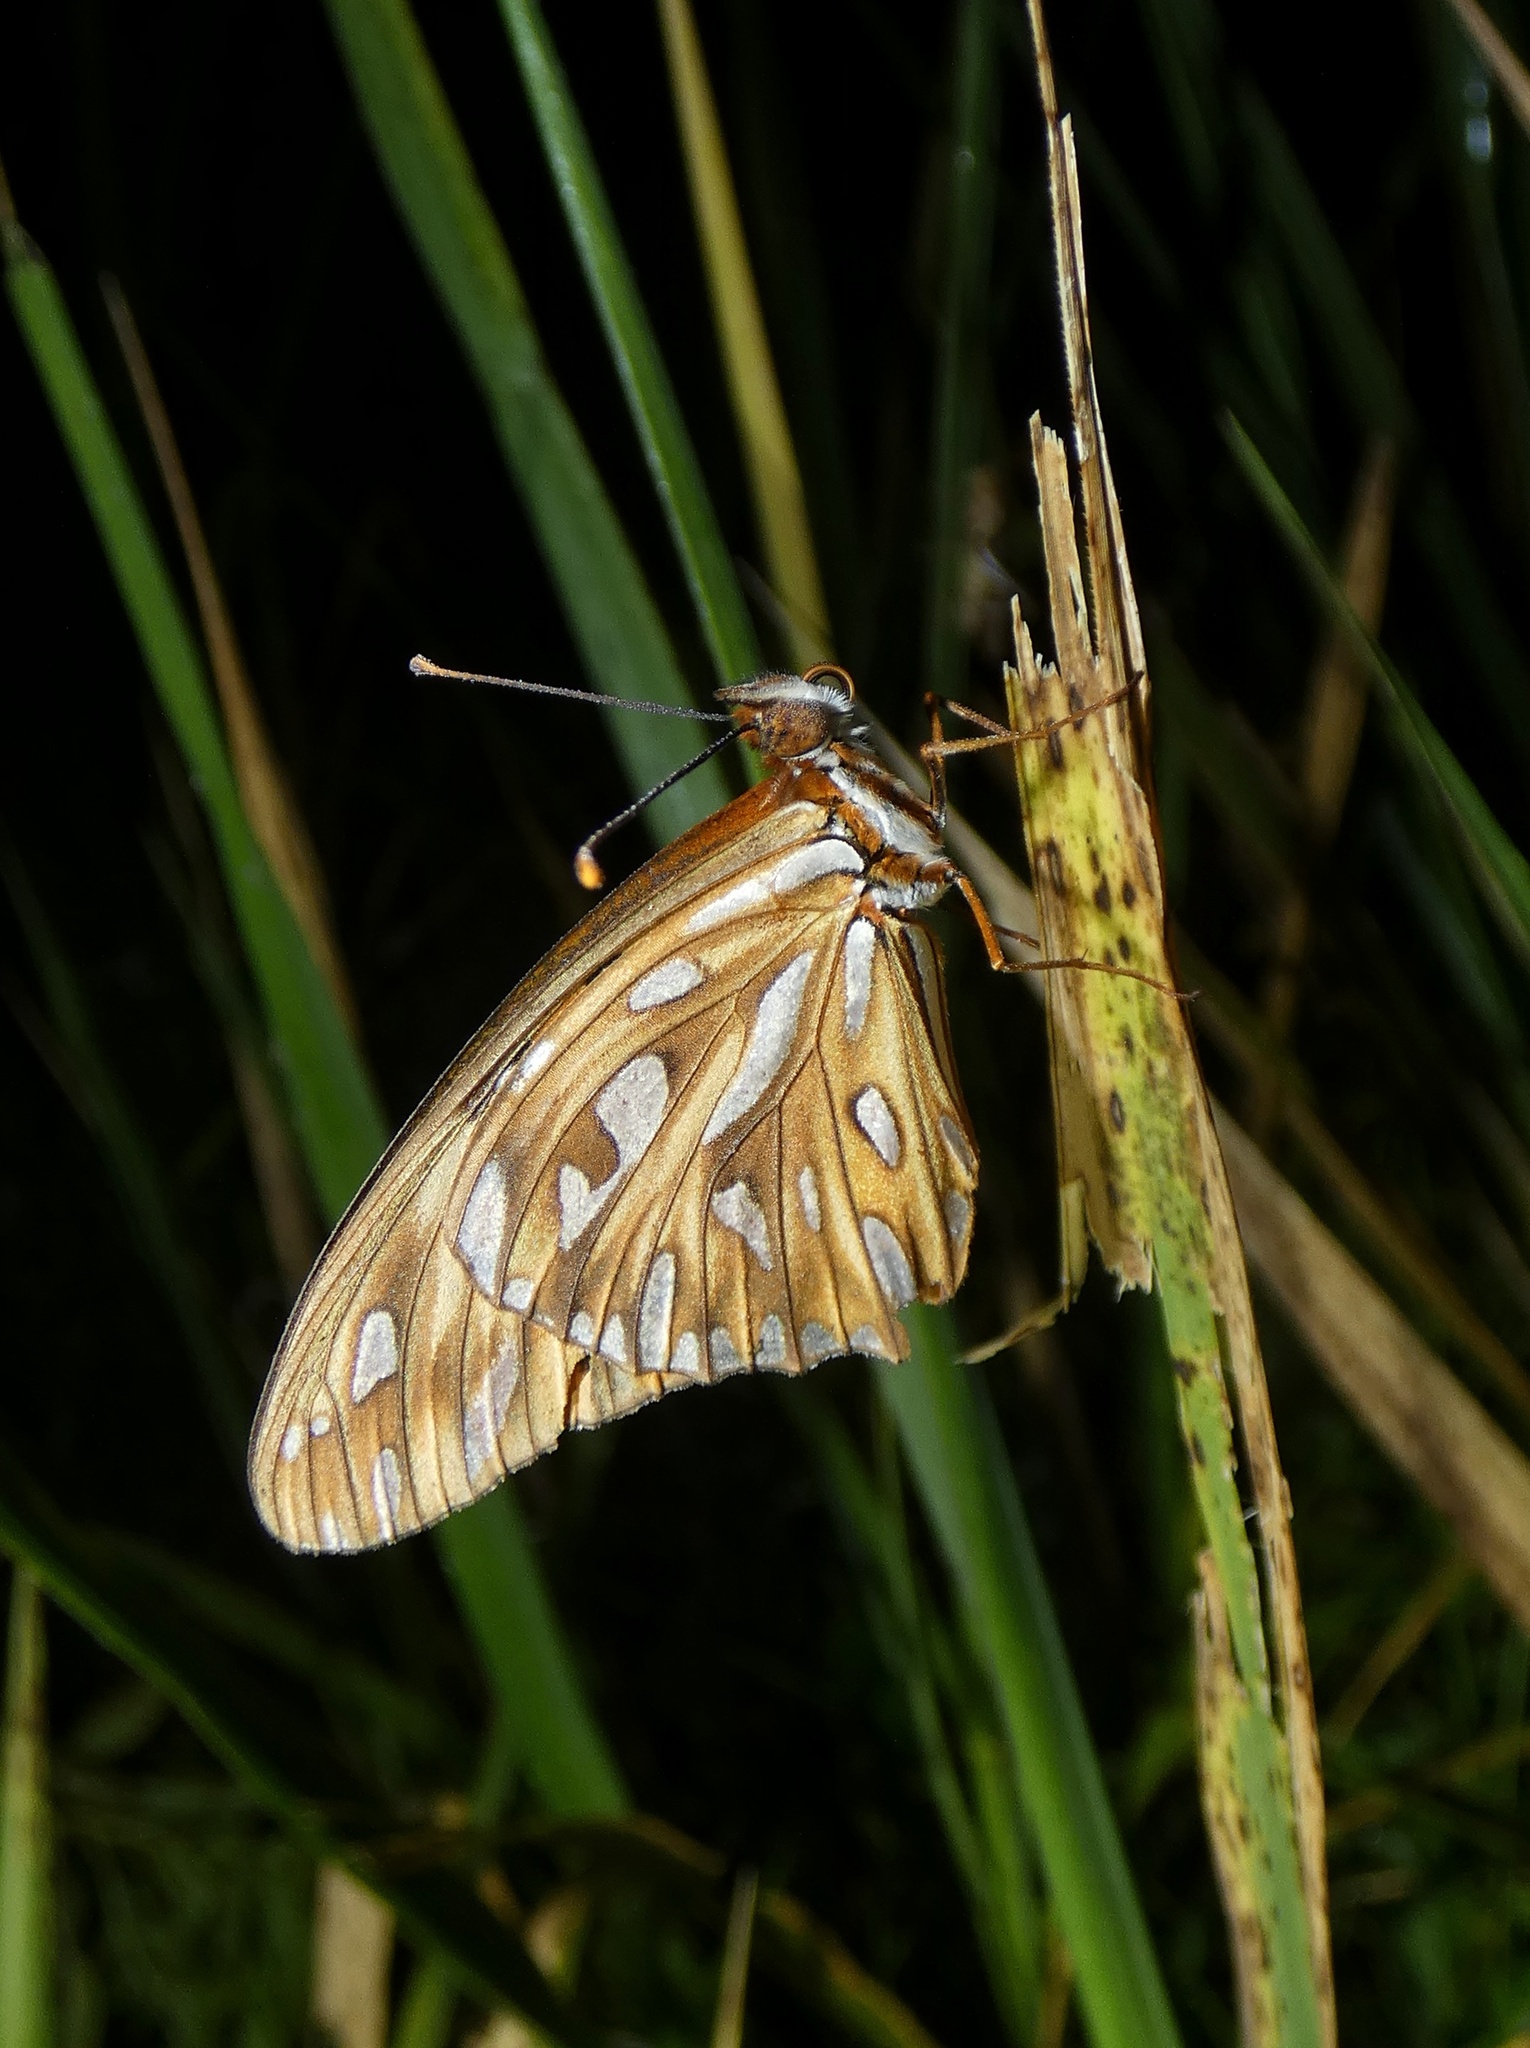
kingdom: Animalia
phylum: Arthropoda
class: Insecta
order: Lepidoptera
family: Nymphalidae
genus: Dione
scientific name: Dione vanillae
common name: Gulf fritillary
